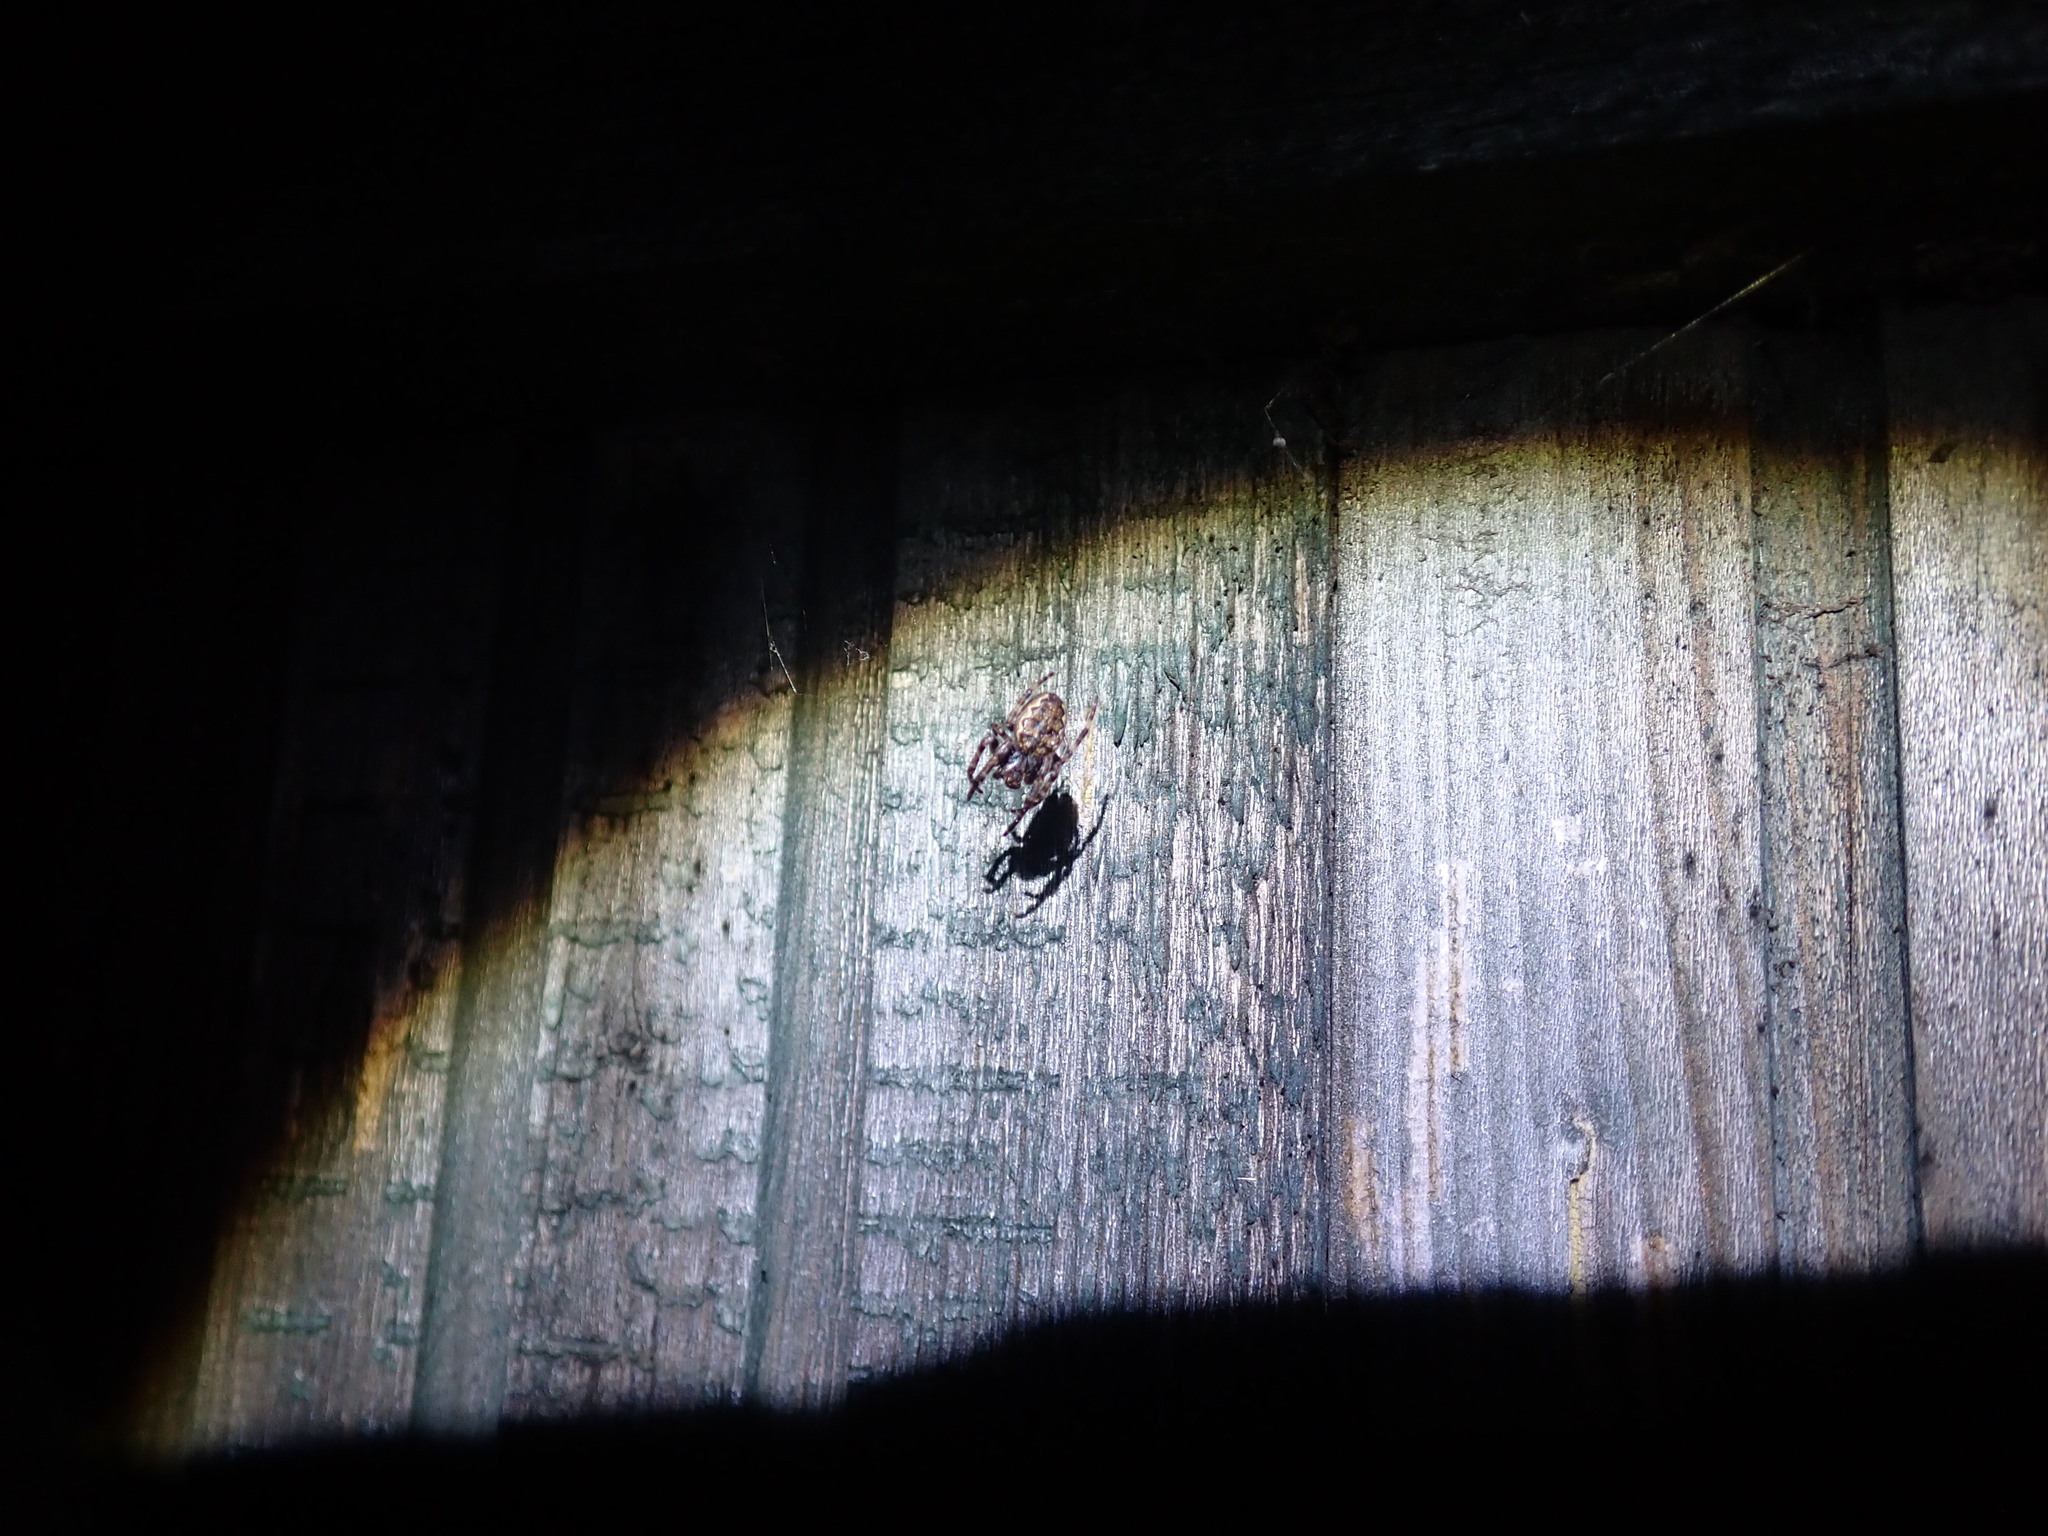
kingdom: Animalia
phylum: Arthropoda
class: Arachnida
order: Araneae
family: Araneidae
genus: Nuctenea
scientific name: Nuctenea umbratica
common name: Toad spider
